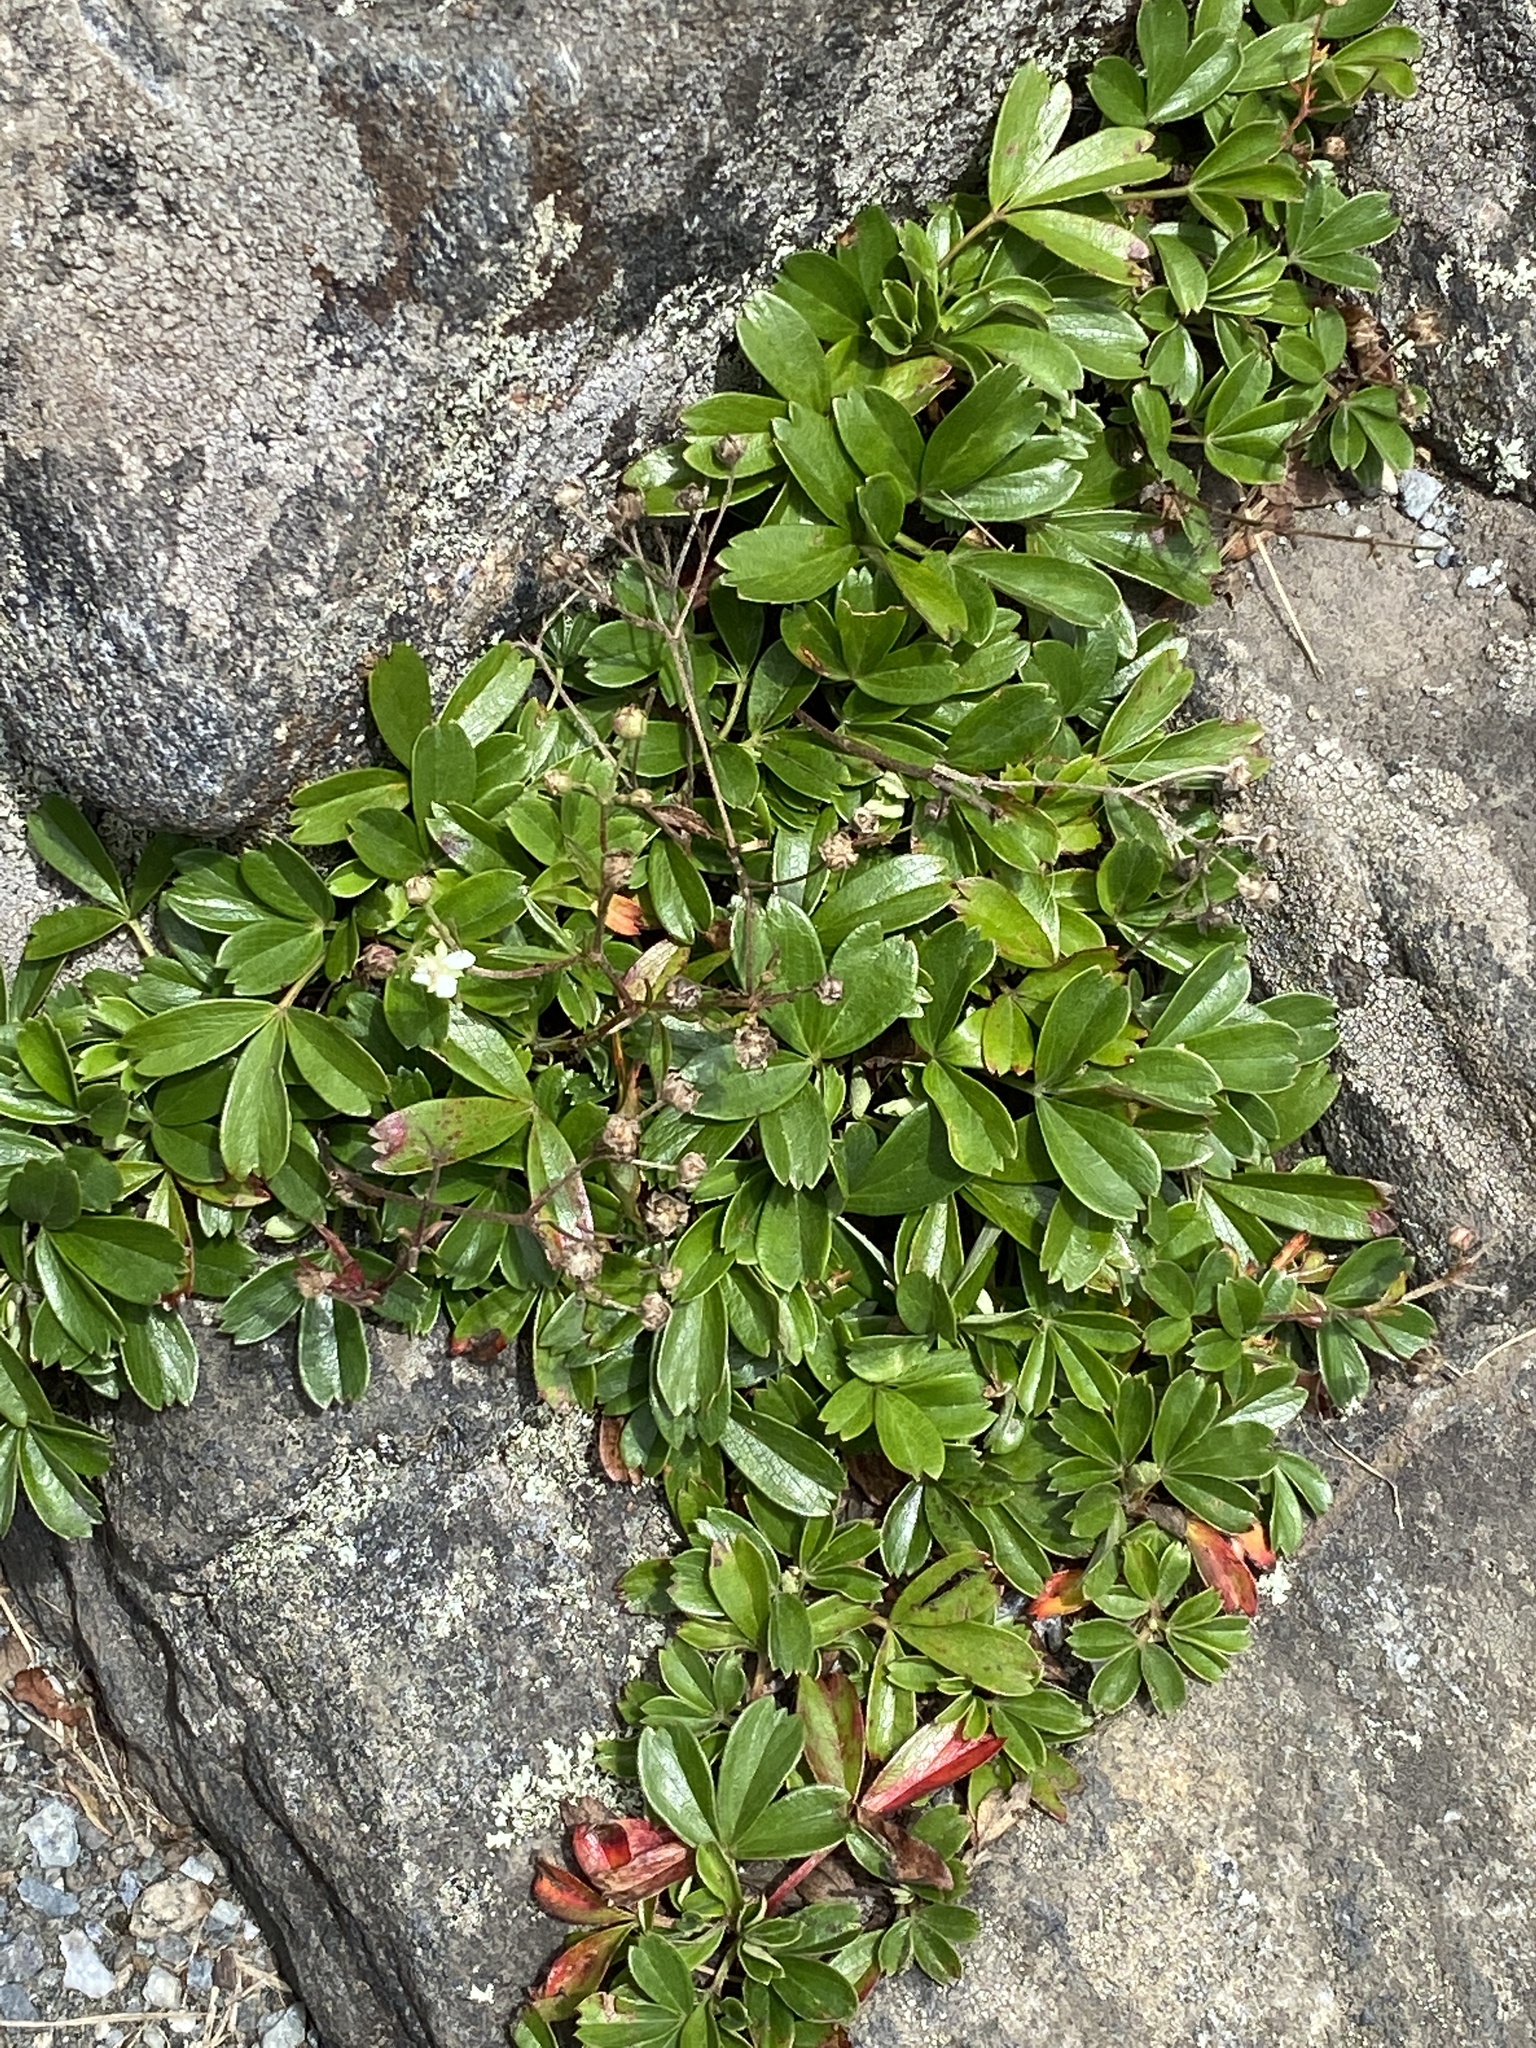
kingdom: Plantae
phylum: Tracheophyta
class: Magnoliopsida
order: Rosales
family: Rosaceae
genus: Sibbaldia
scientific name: Sibbaldia tridentata
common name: Three-toothed cinquefoil
